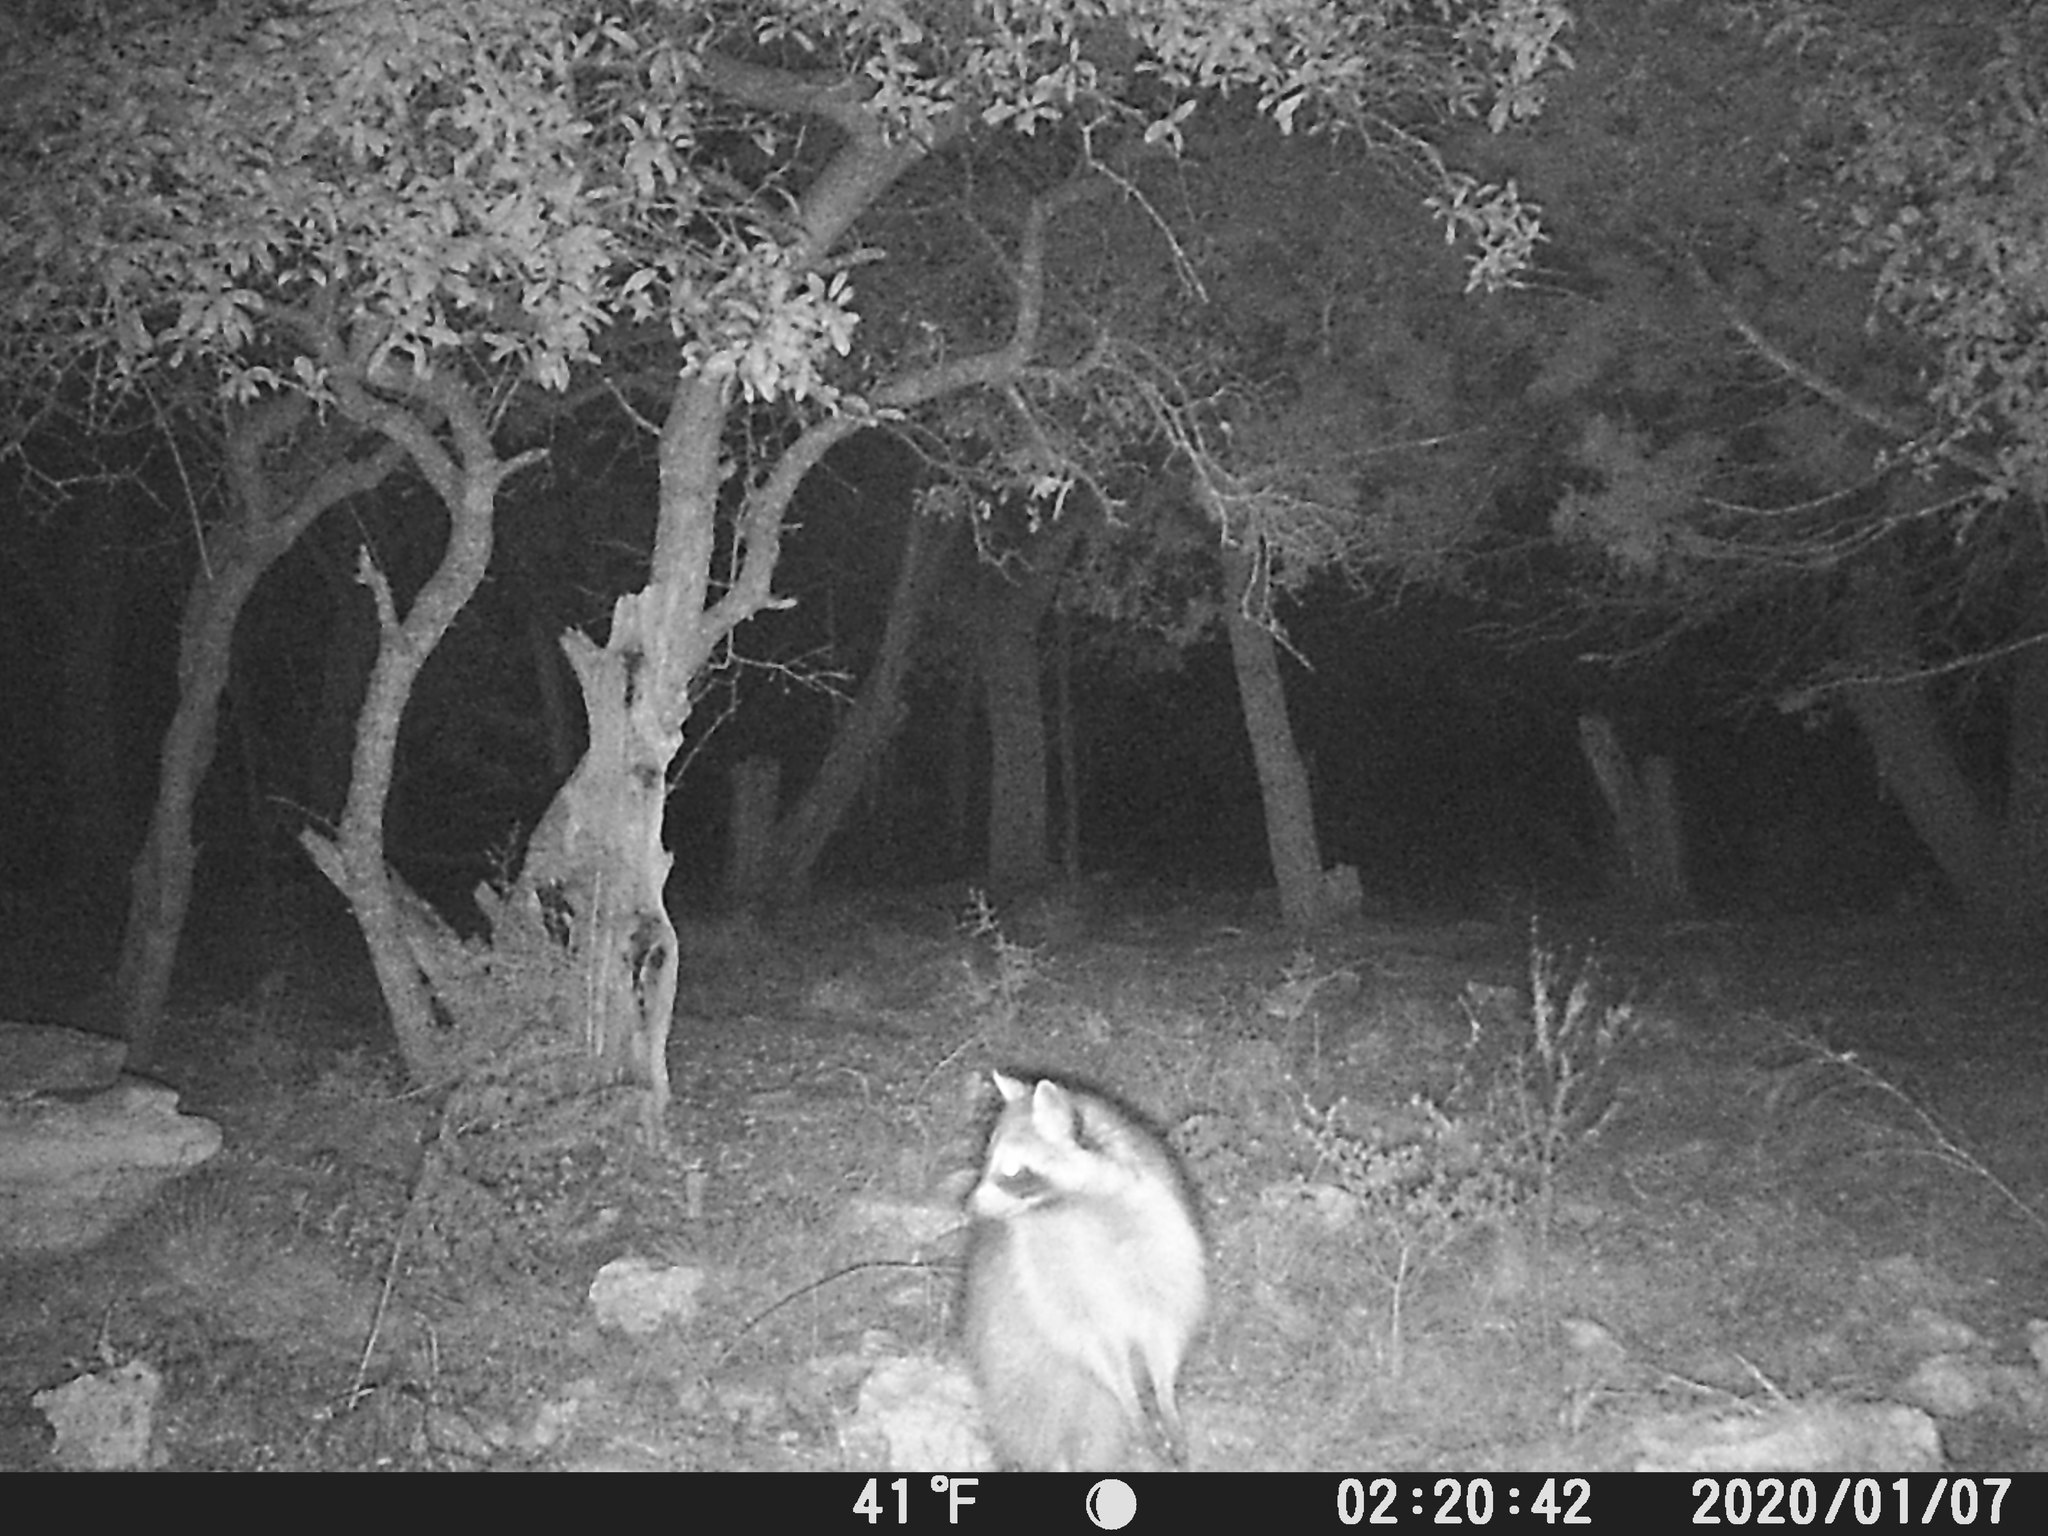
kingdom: Animalia
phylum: Chordata
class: Mammalia
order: Carnivora
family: Procyonidae
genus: Procyon
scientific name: Procyon lotor
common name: Raccoon
